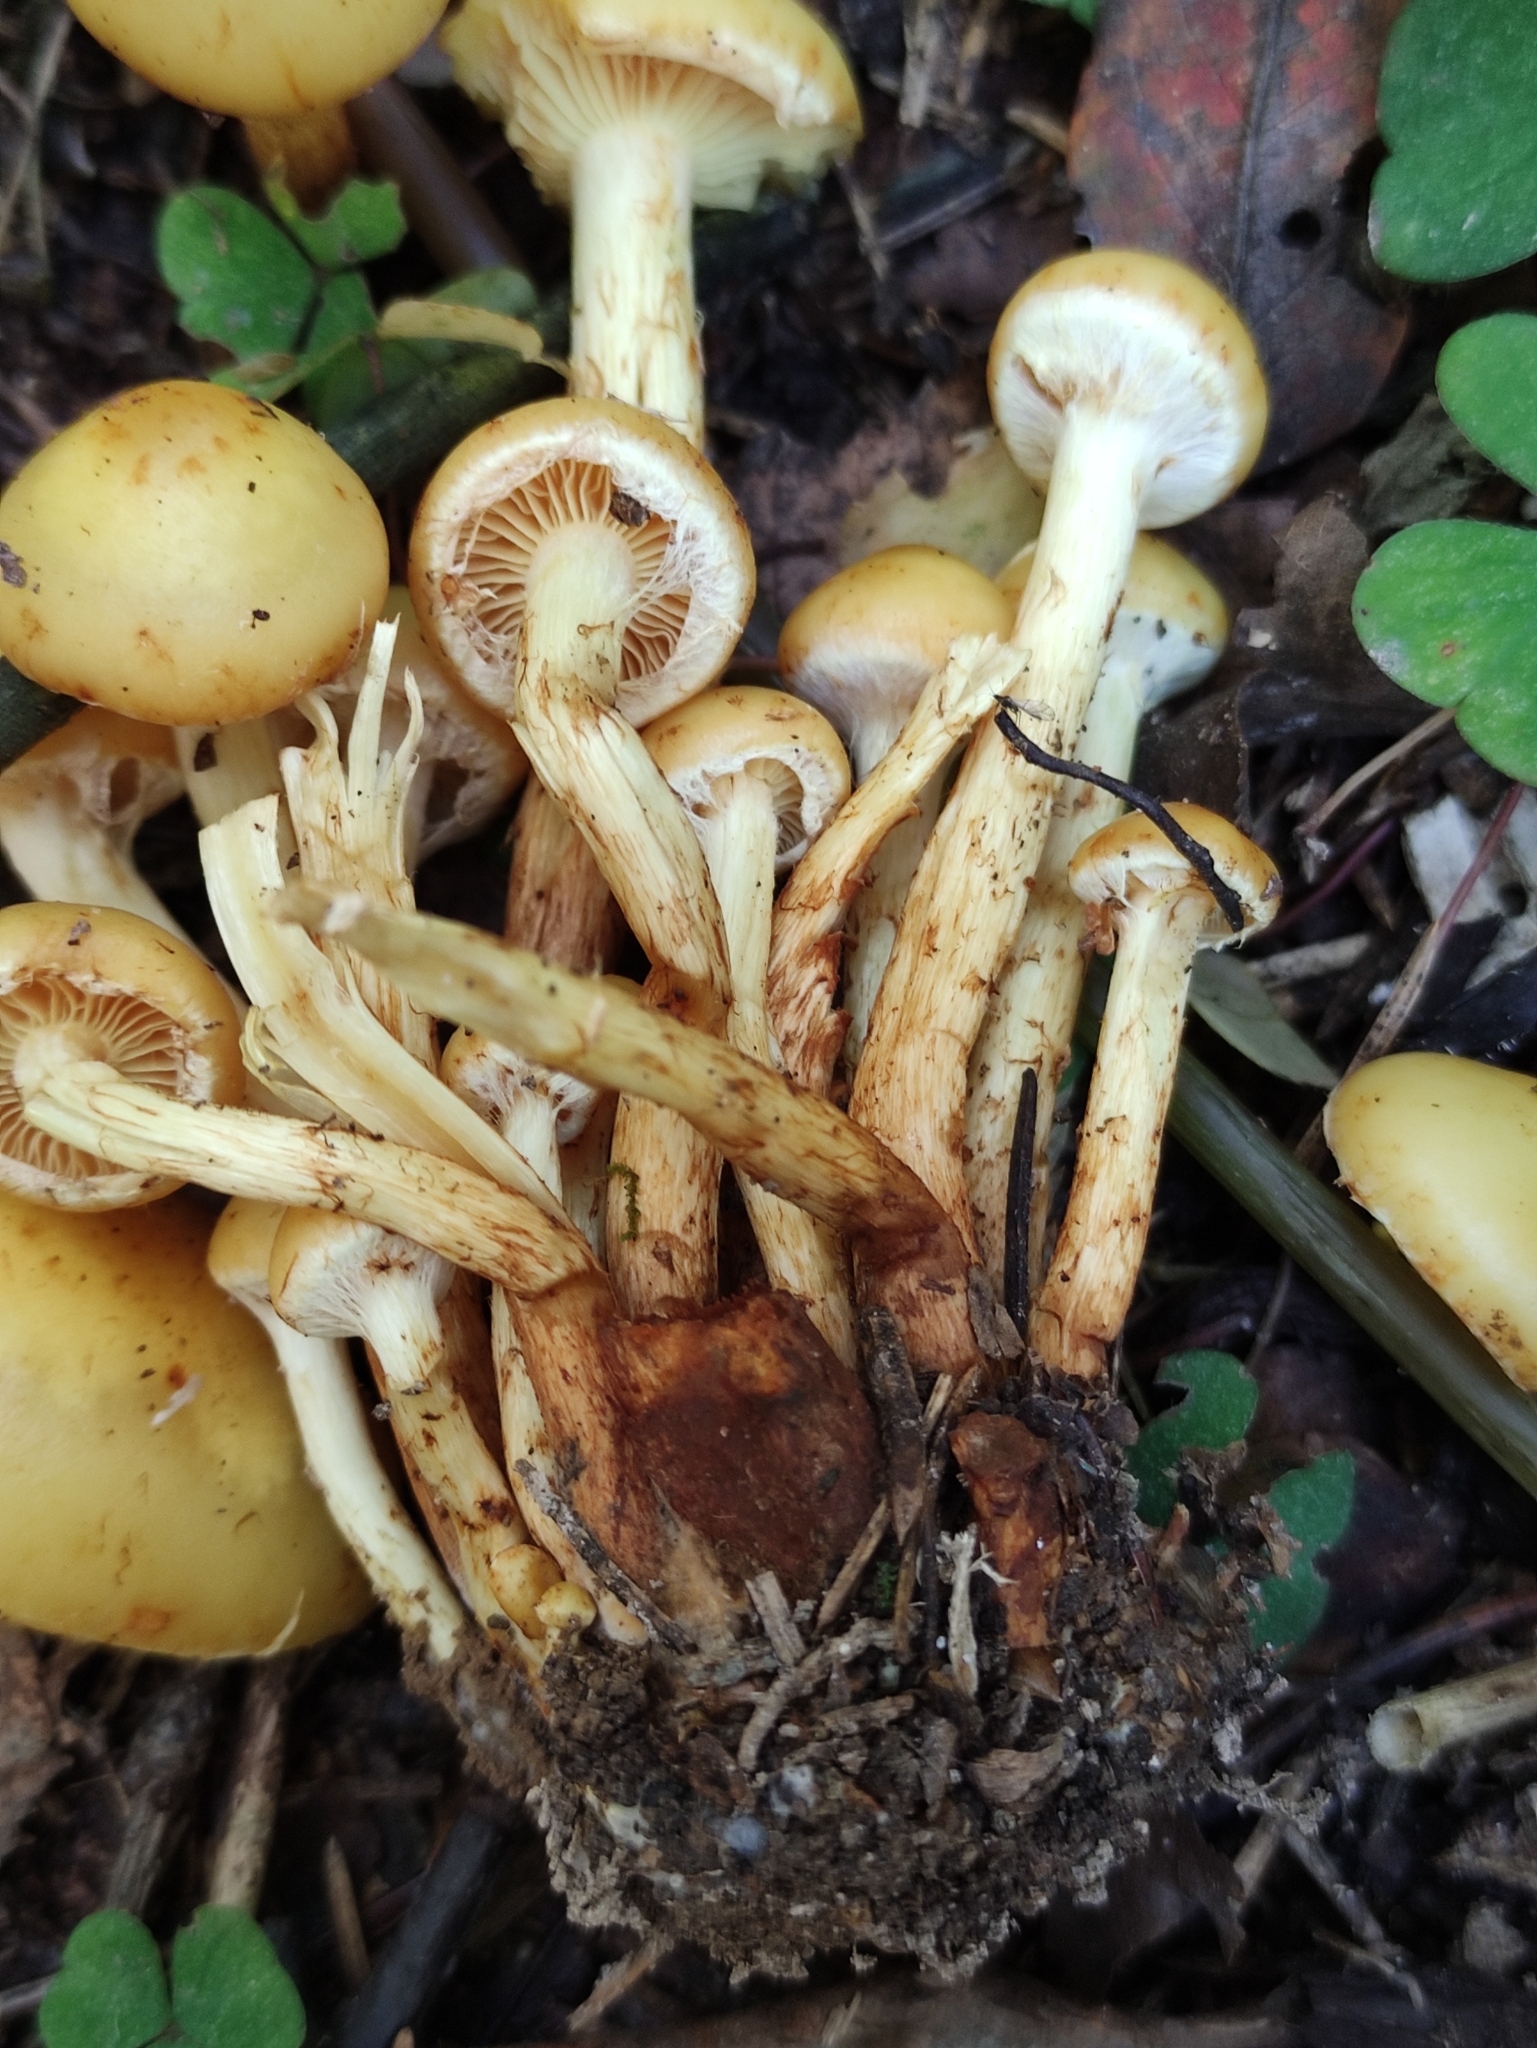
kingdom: Fungi
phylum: Basidiomycota
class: Agaricomycetes
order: Agaricales
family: Hymenogastraceae
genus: Flammula
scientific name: Flammula alnicola
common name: Alder scalycap
